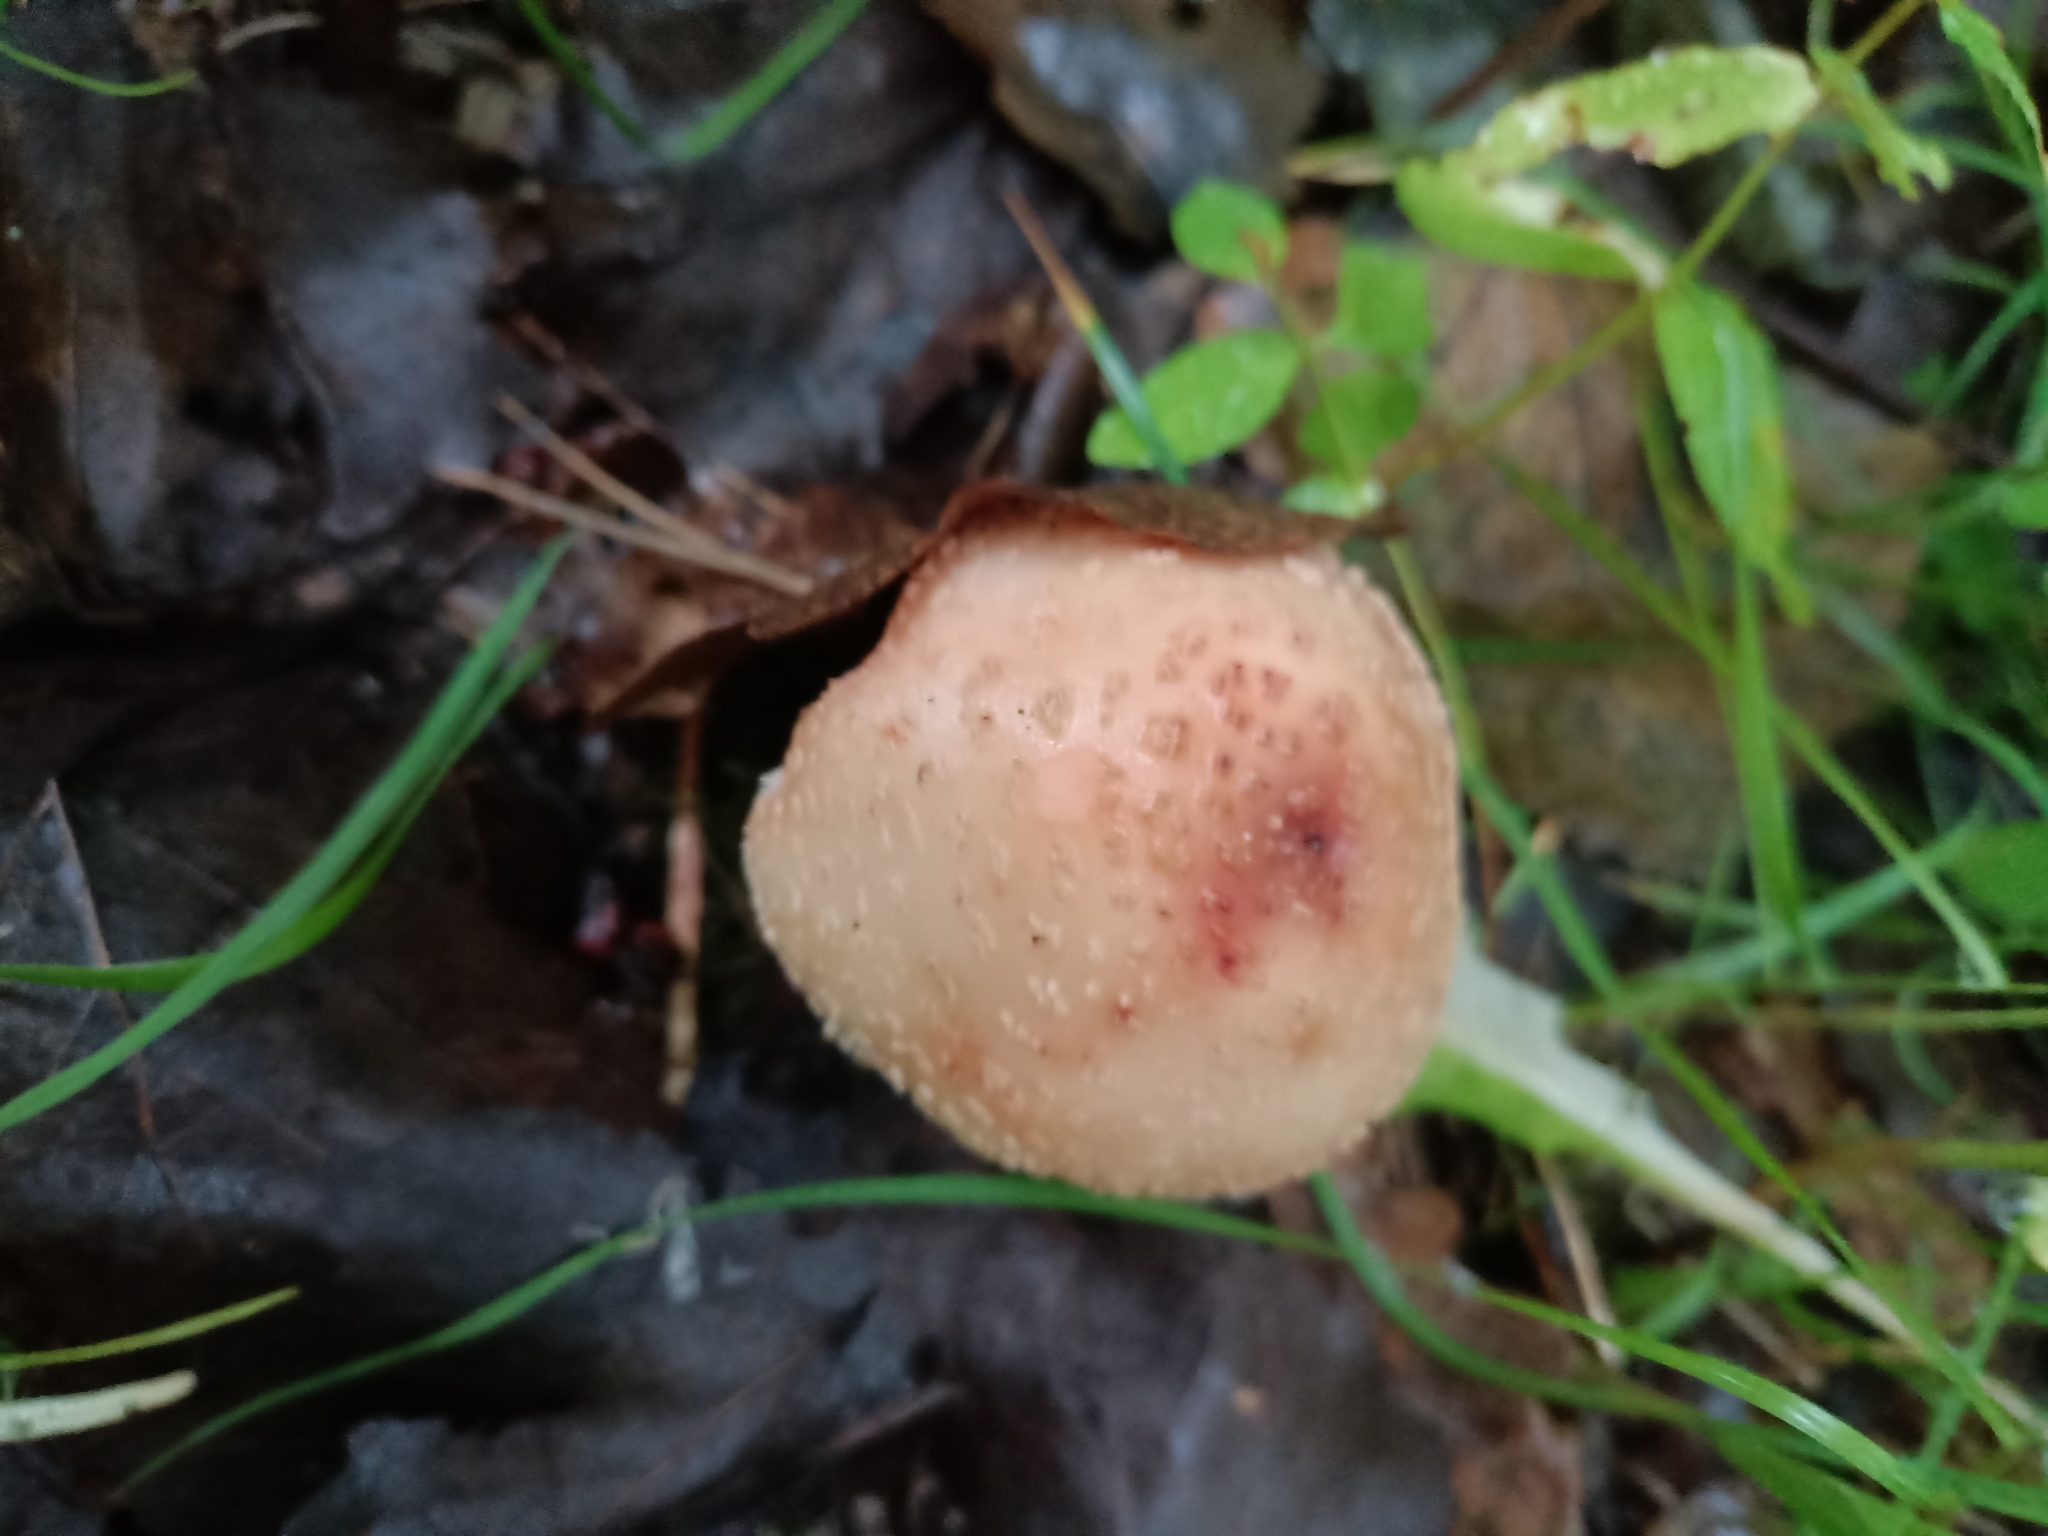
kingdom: Fungi
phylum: Basidiomycota
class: Agaricomycetes
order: Agaricales
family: Amanitaceae
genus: Amanita
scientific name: Amanita rubescens
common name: Blusher
